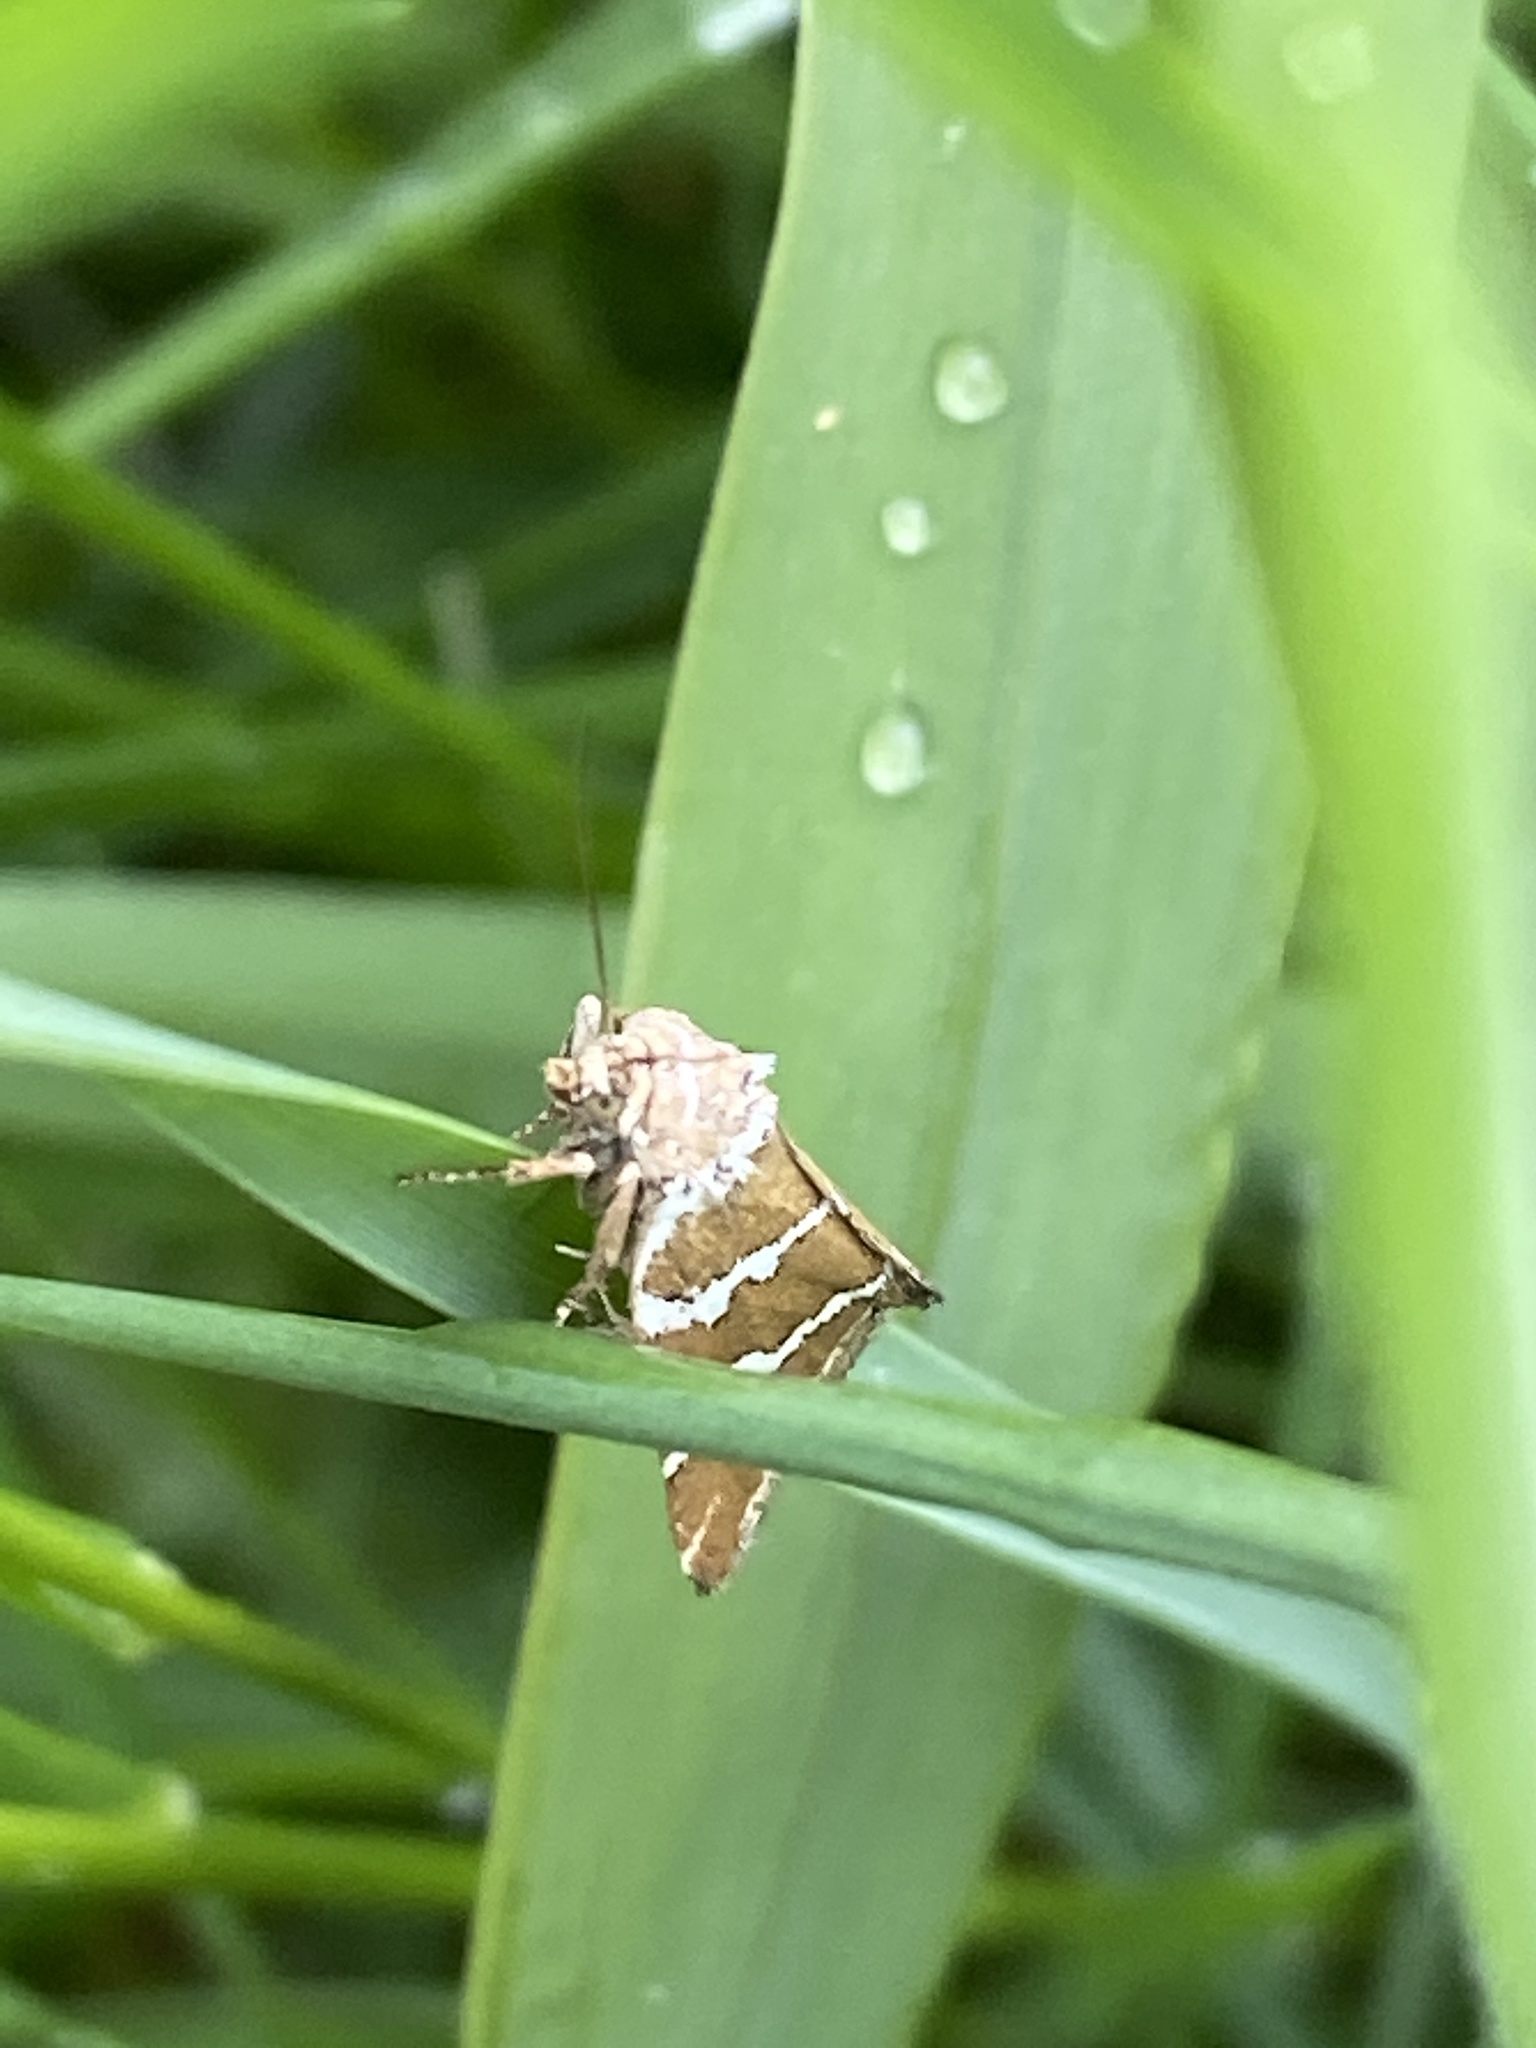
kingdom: Animalia
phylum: Arthropoda
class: Insecta
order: Lepidoptera
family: Noctuidae
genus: Deltote
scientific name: Deltote bankiana
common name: Silver barred
